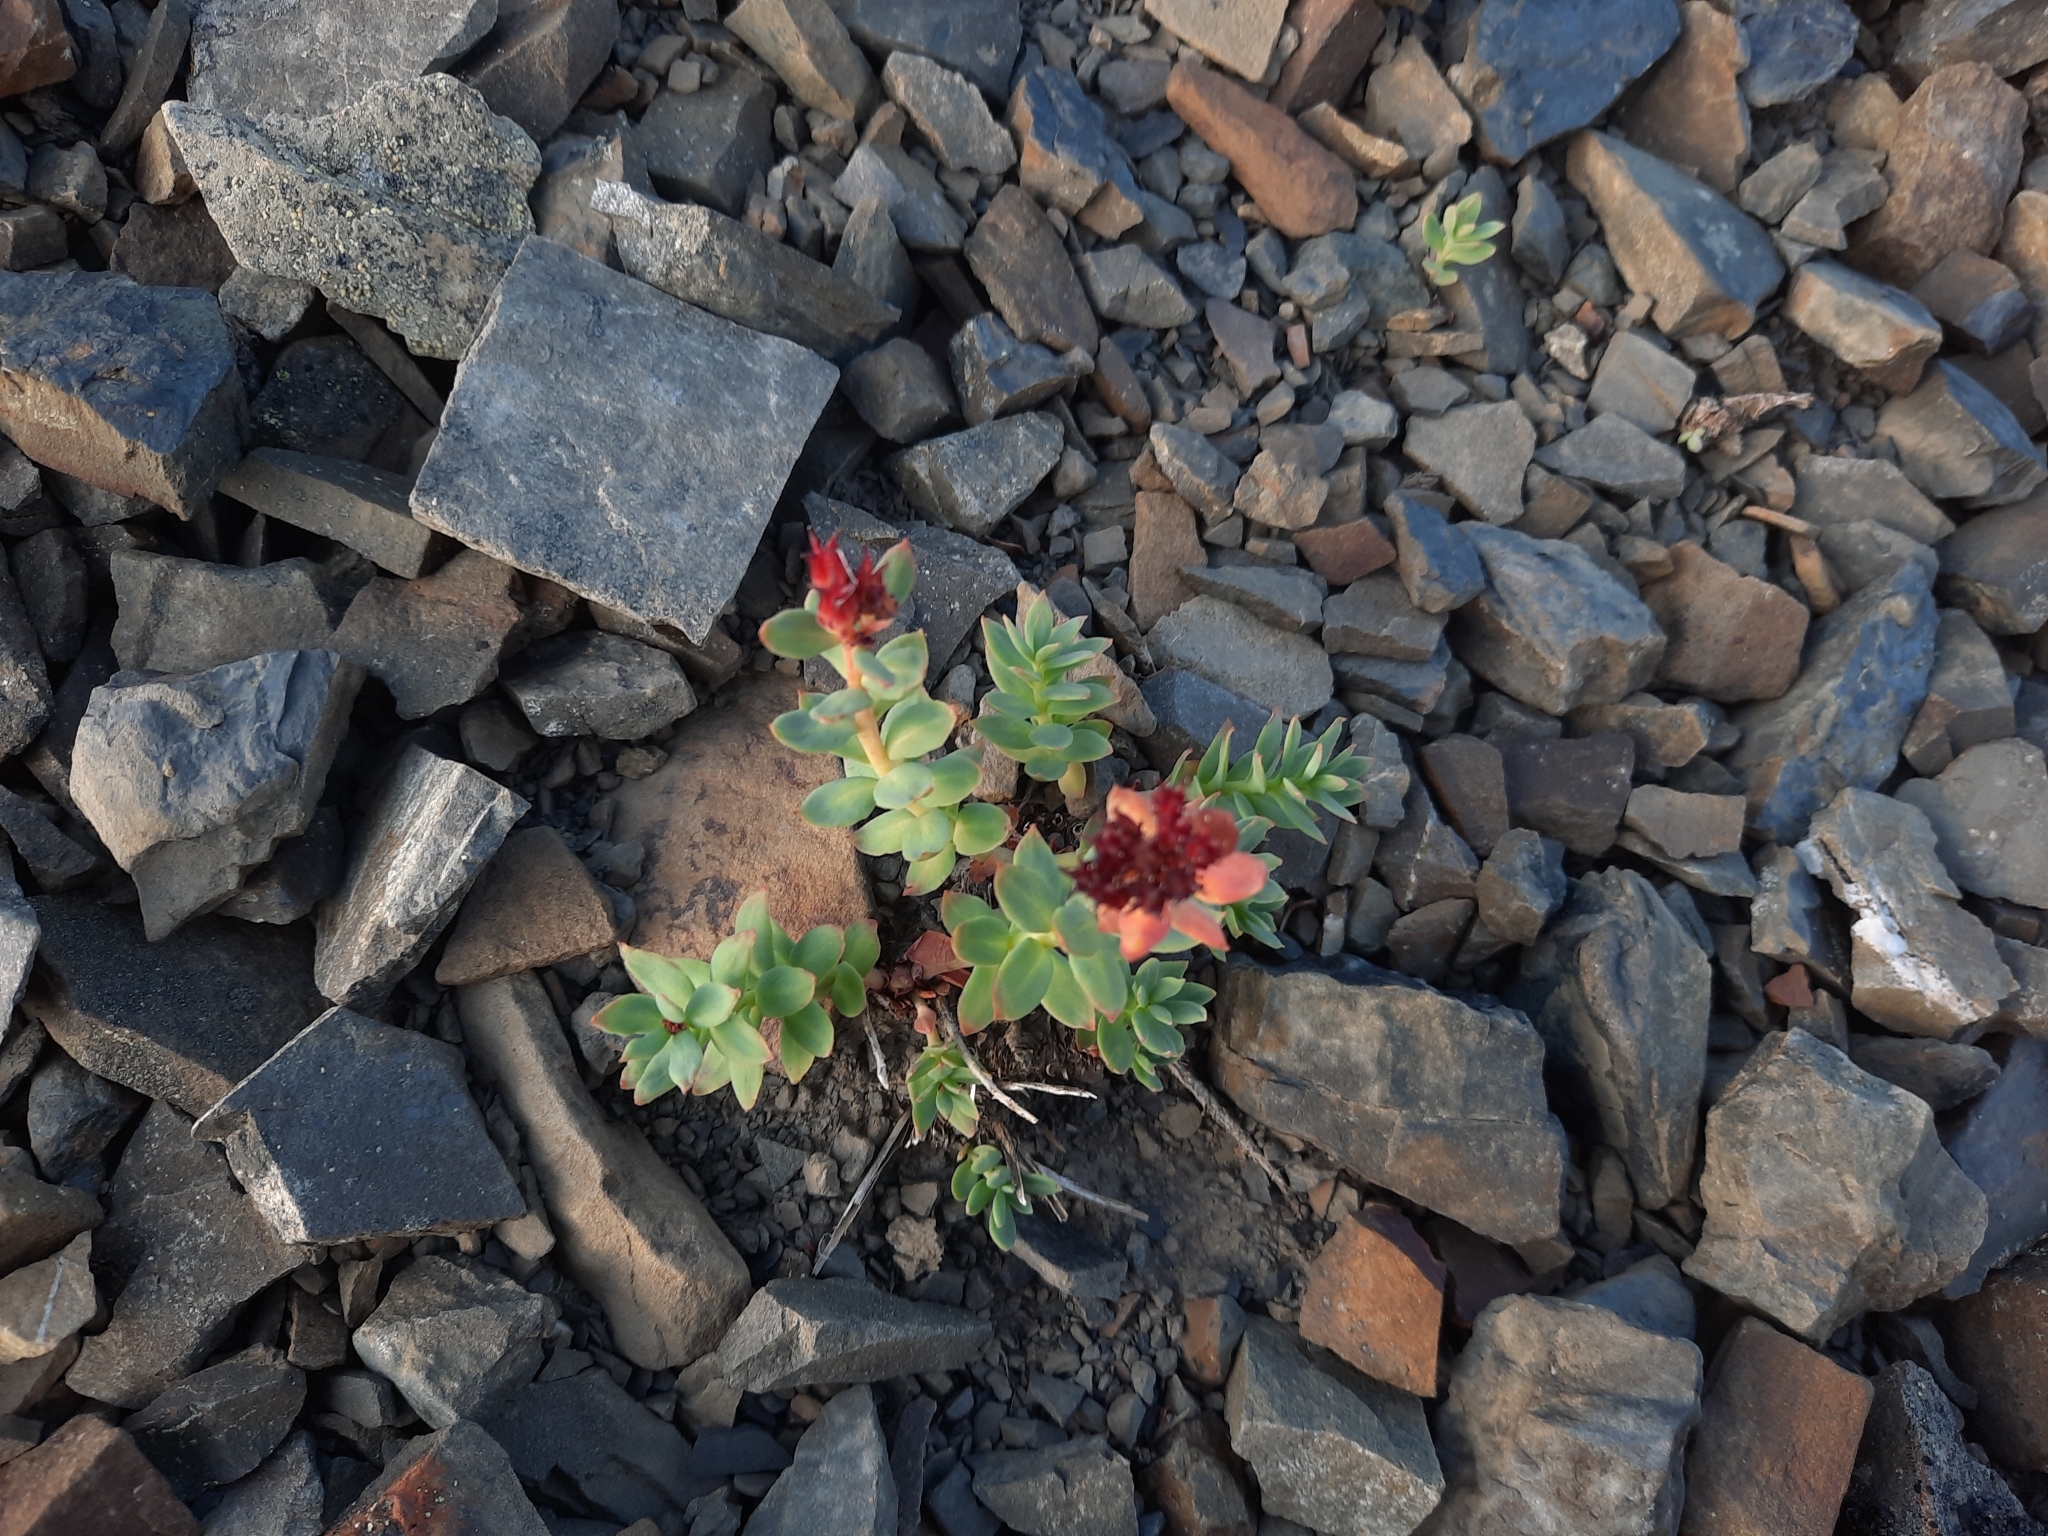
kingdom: Plantae
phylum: Tracheophyta
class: Magnoliopsida
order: Saxifragales
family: Crassulaceae
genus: Rhodiola
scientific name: Rhodiola integrifolia
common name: Western roseroot
